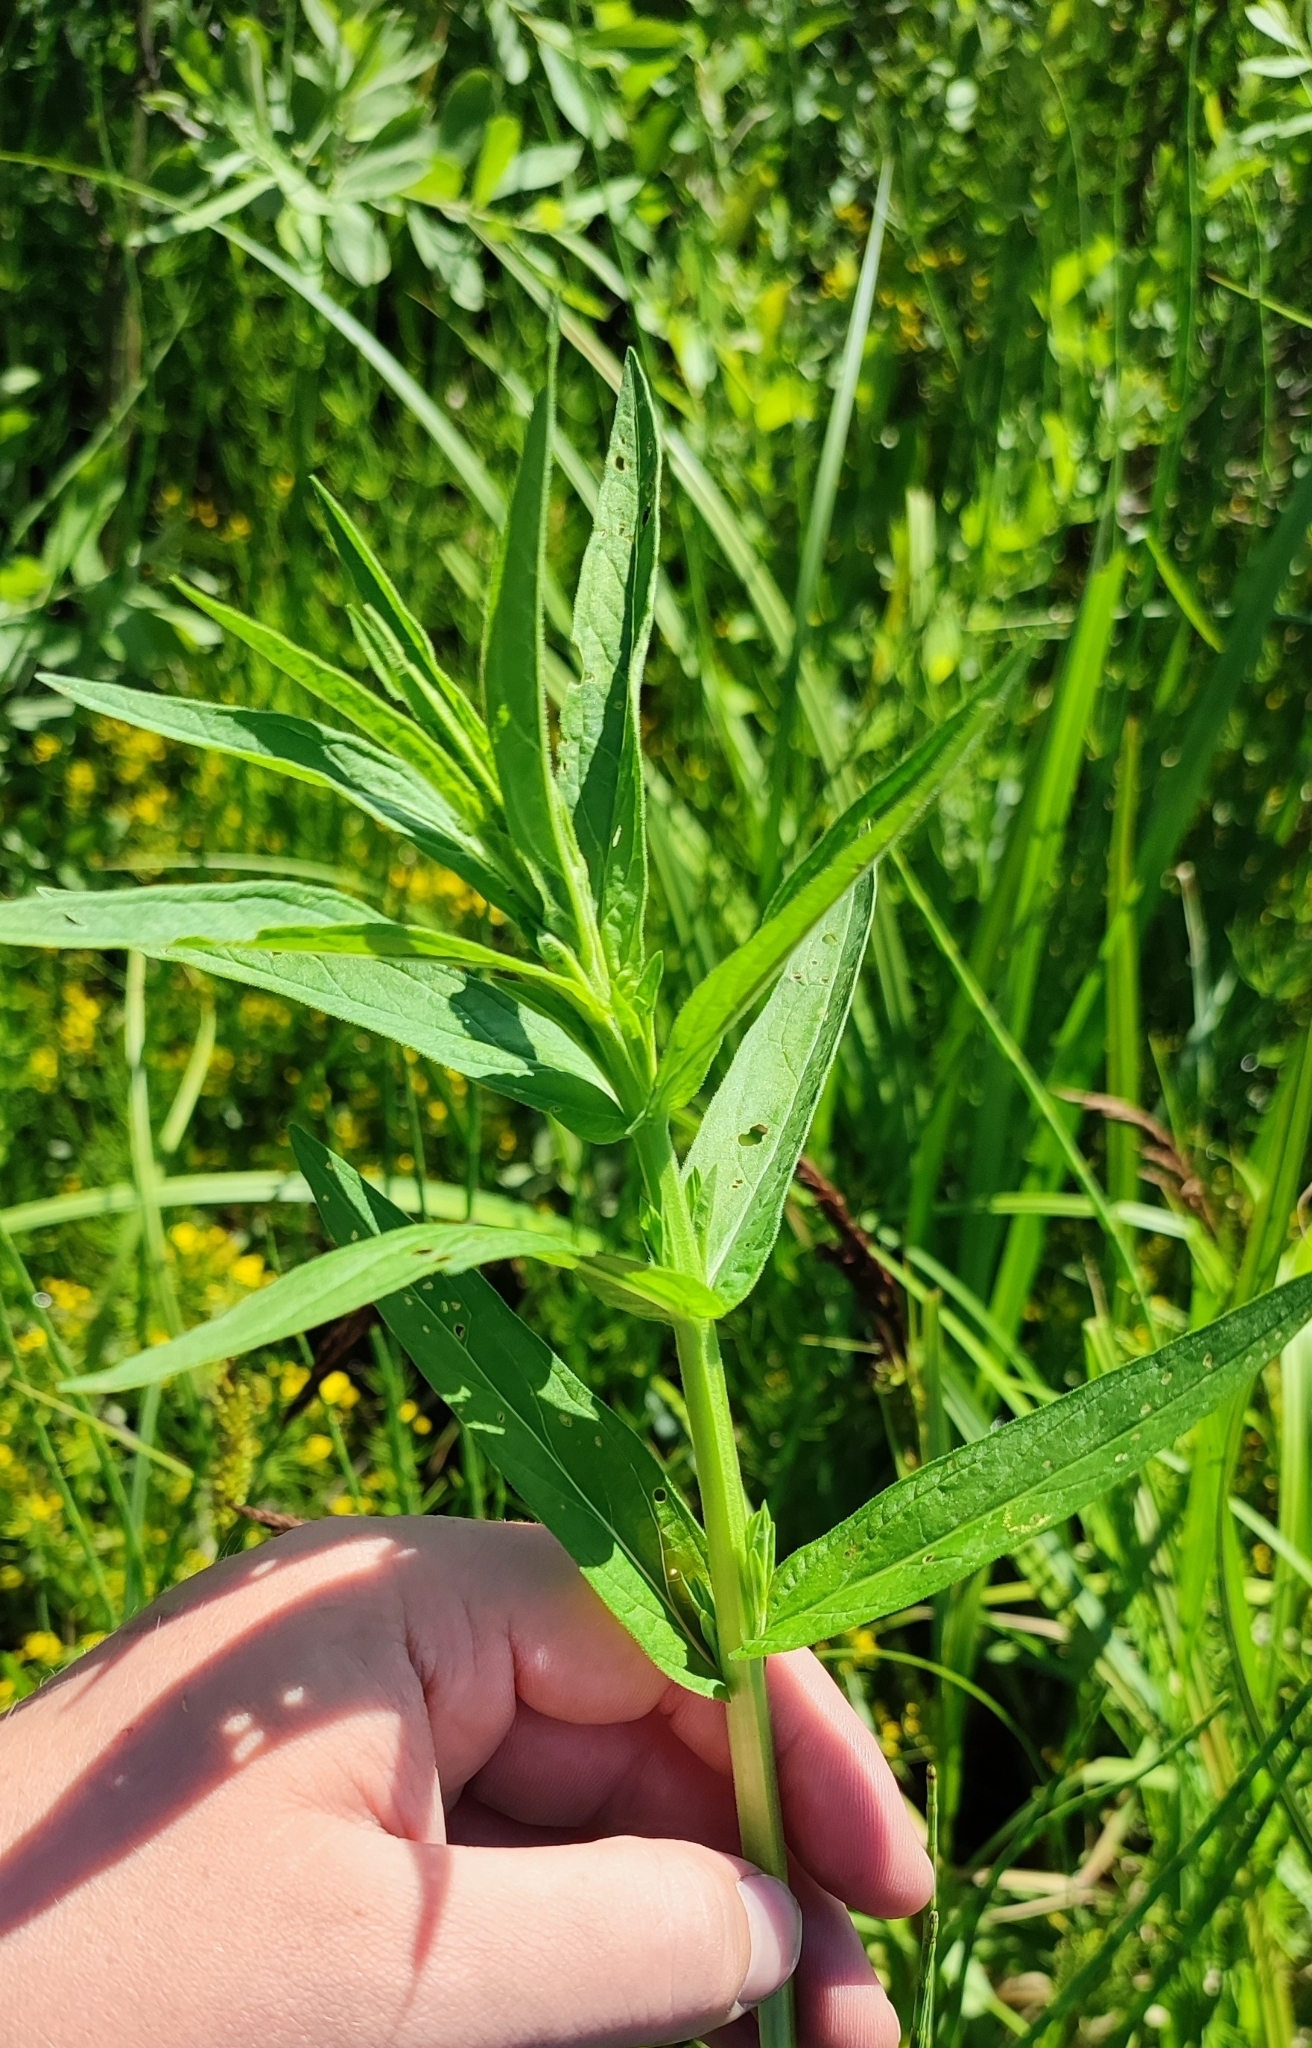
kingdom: Plantae
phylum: Tracheophyta
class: Magnoliopsida
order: Myrtales
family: Lythraceae
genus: Lythrum
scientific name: Lythrum salicaria
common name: Purple loosestrife
